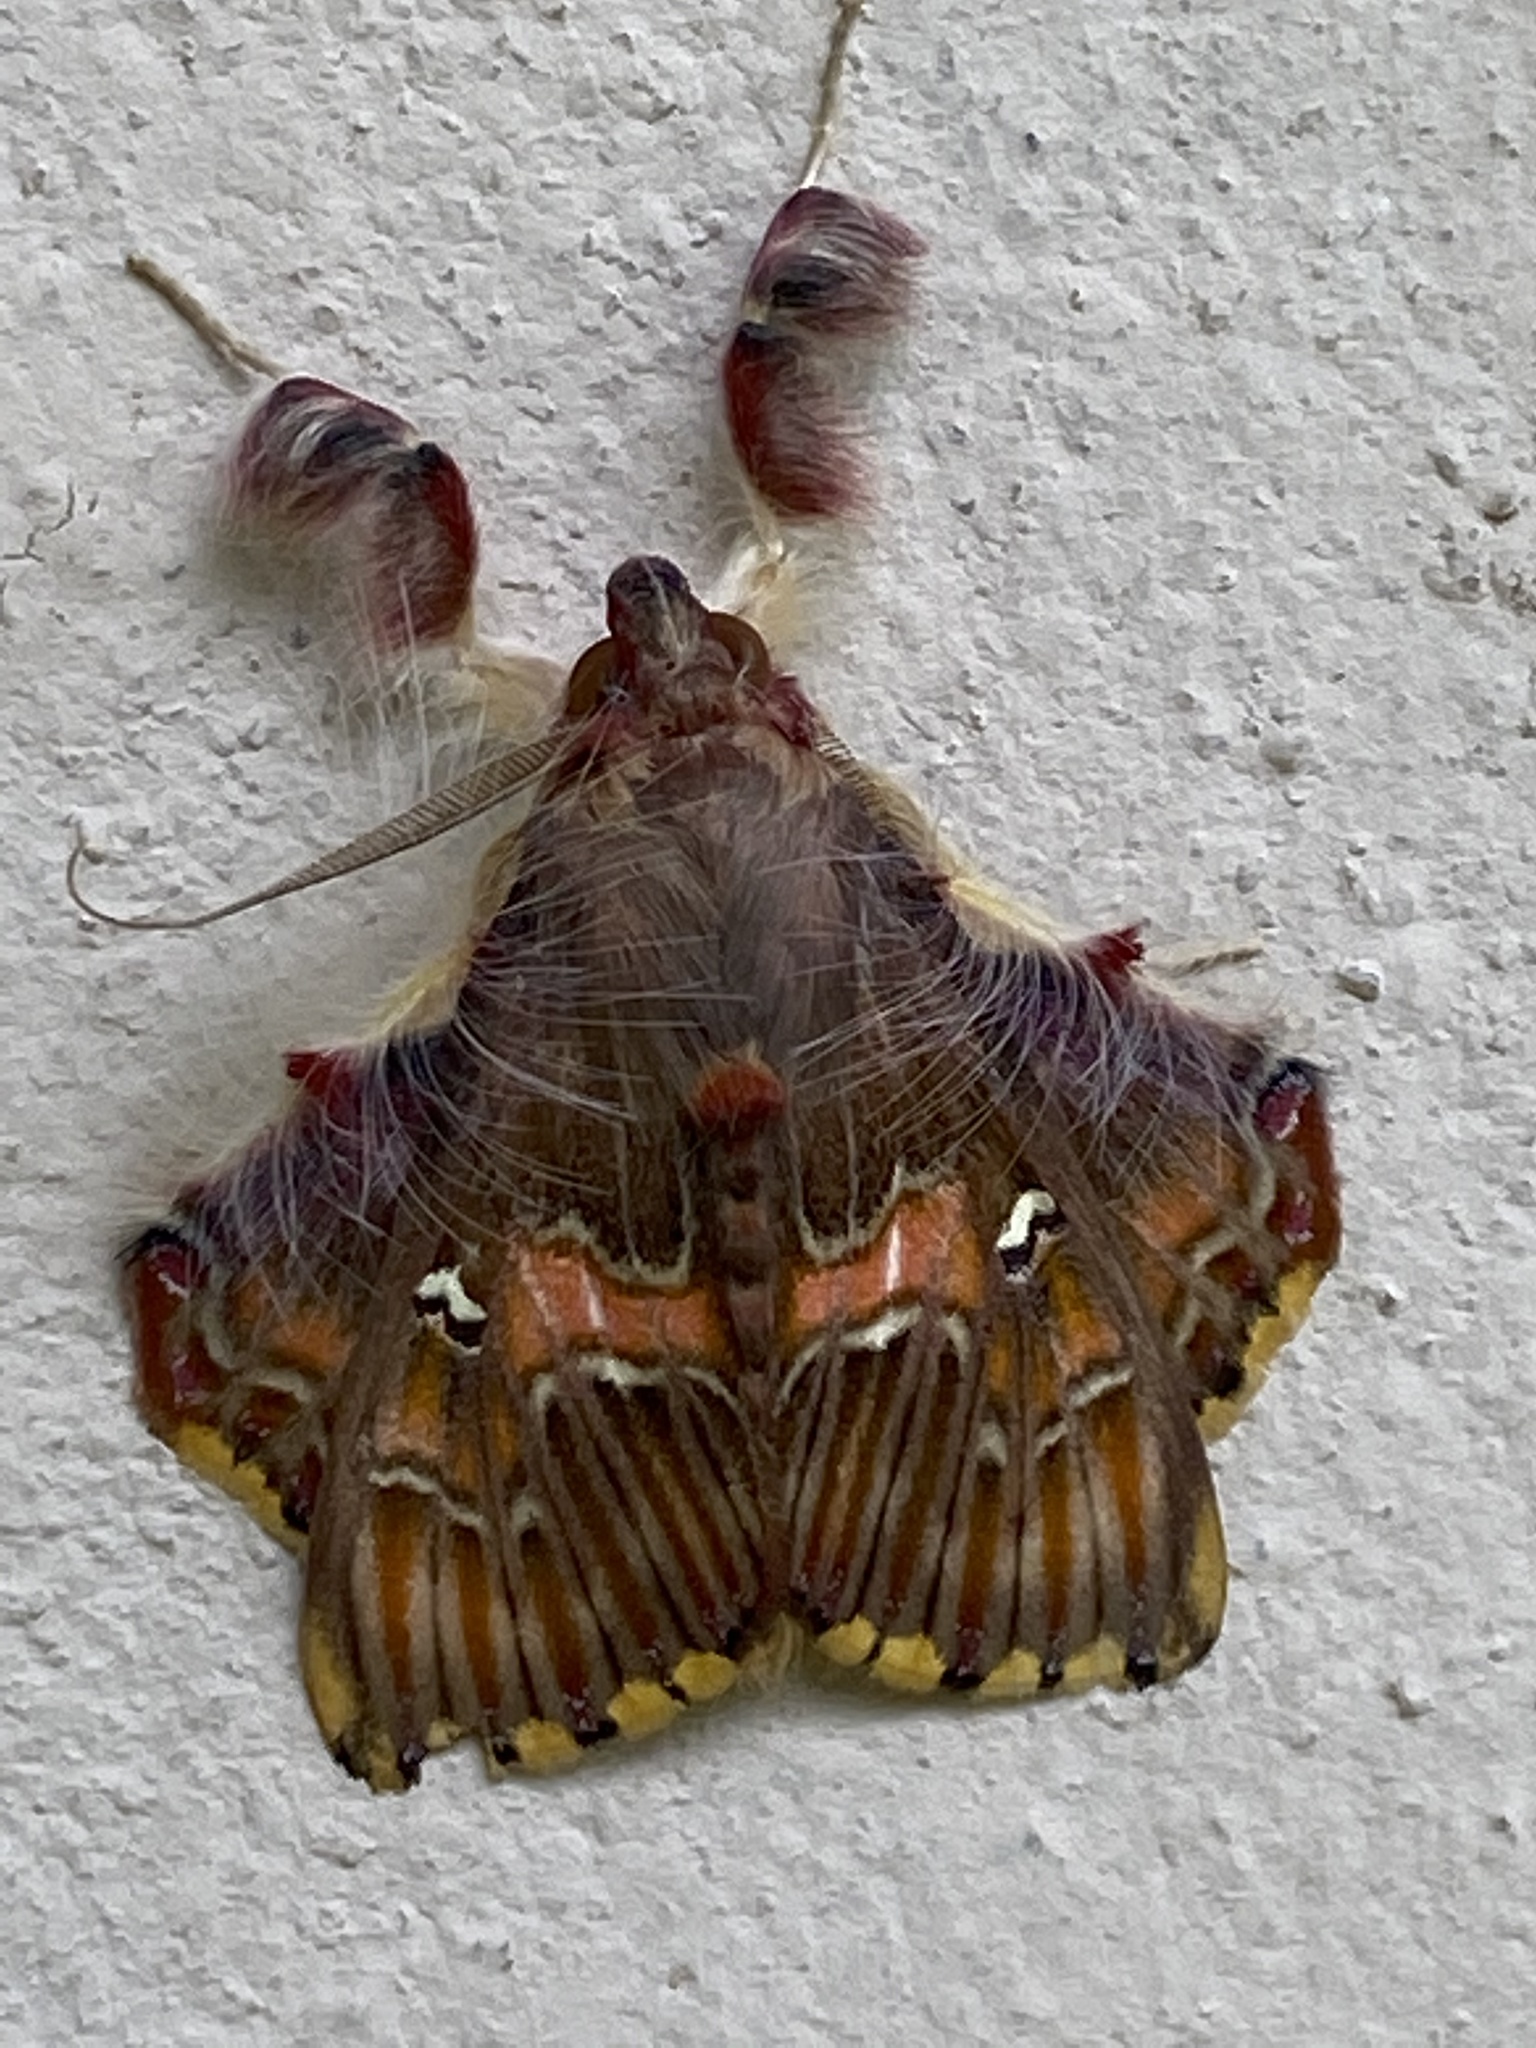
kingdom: Animalia
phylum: Arthropoda
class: Insecta
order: Lepidoptera
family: Erebidae
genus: Sosxetra
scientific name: Sosxetra grata
